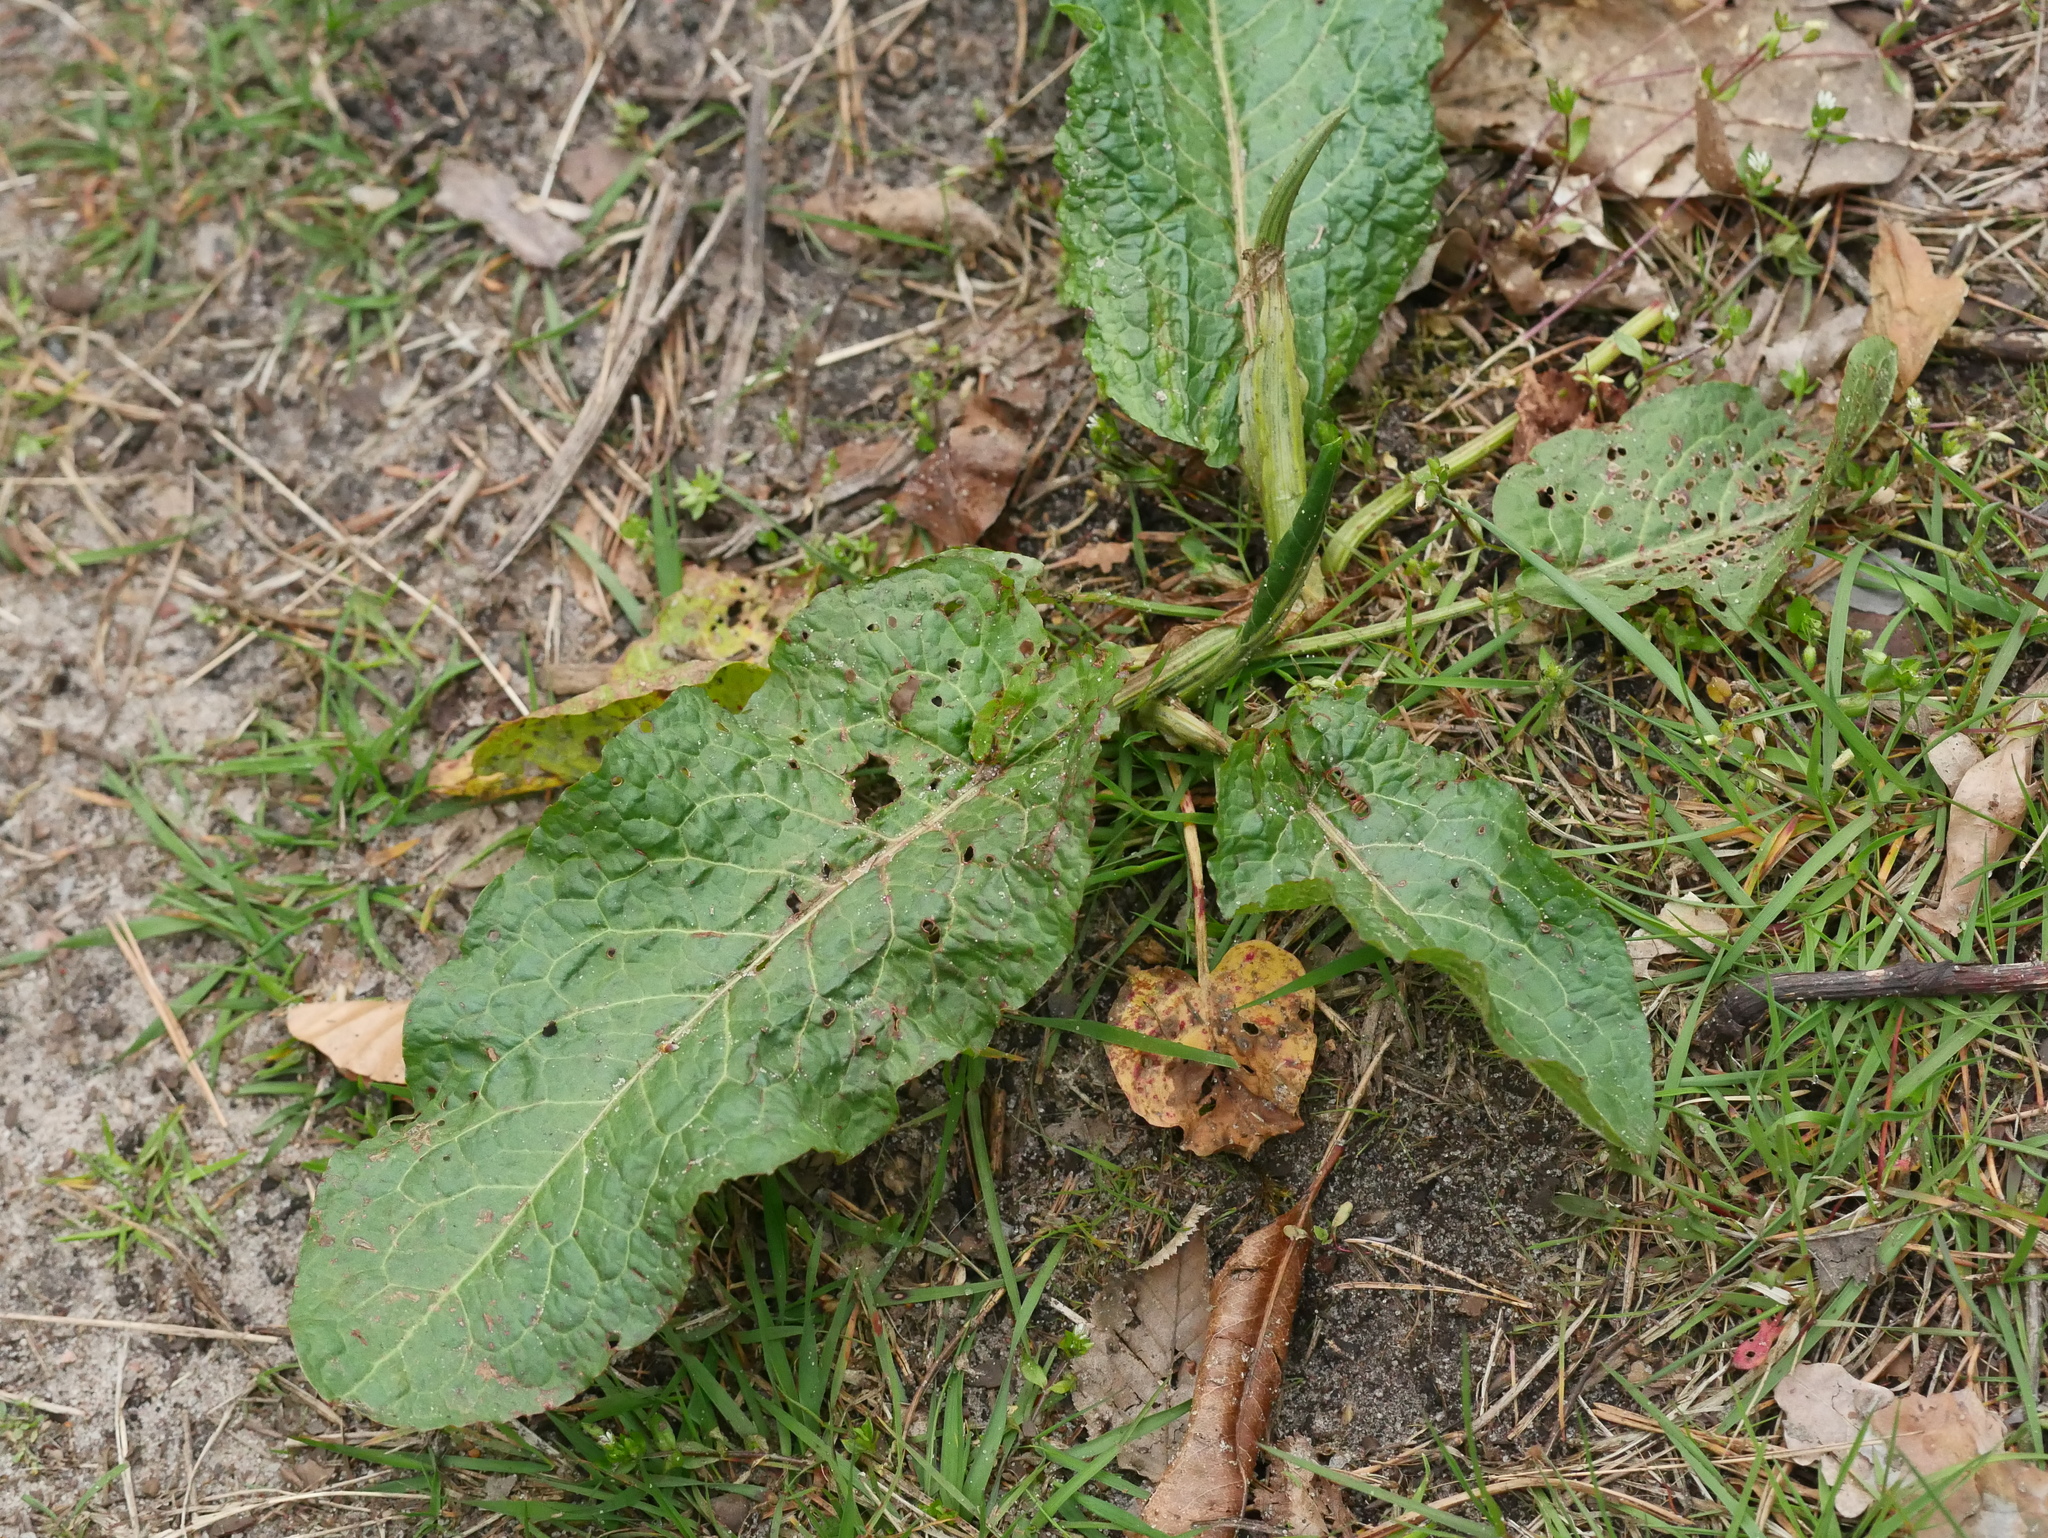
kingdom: Plantae
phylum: Tracheophyta
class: Magnoliopsida
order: Caryophyllales
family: Polygonaceae
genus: Rumex
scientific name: Rumex obtusifolius
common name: Bitter dock
